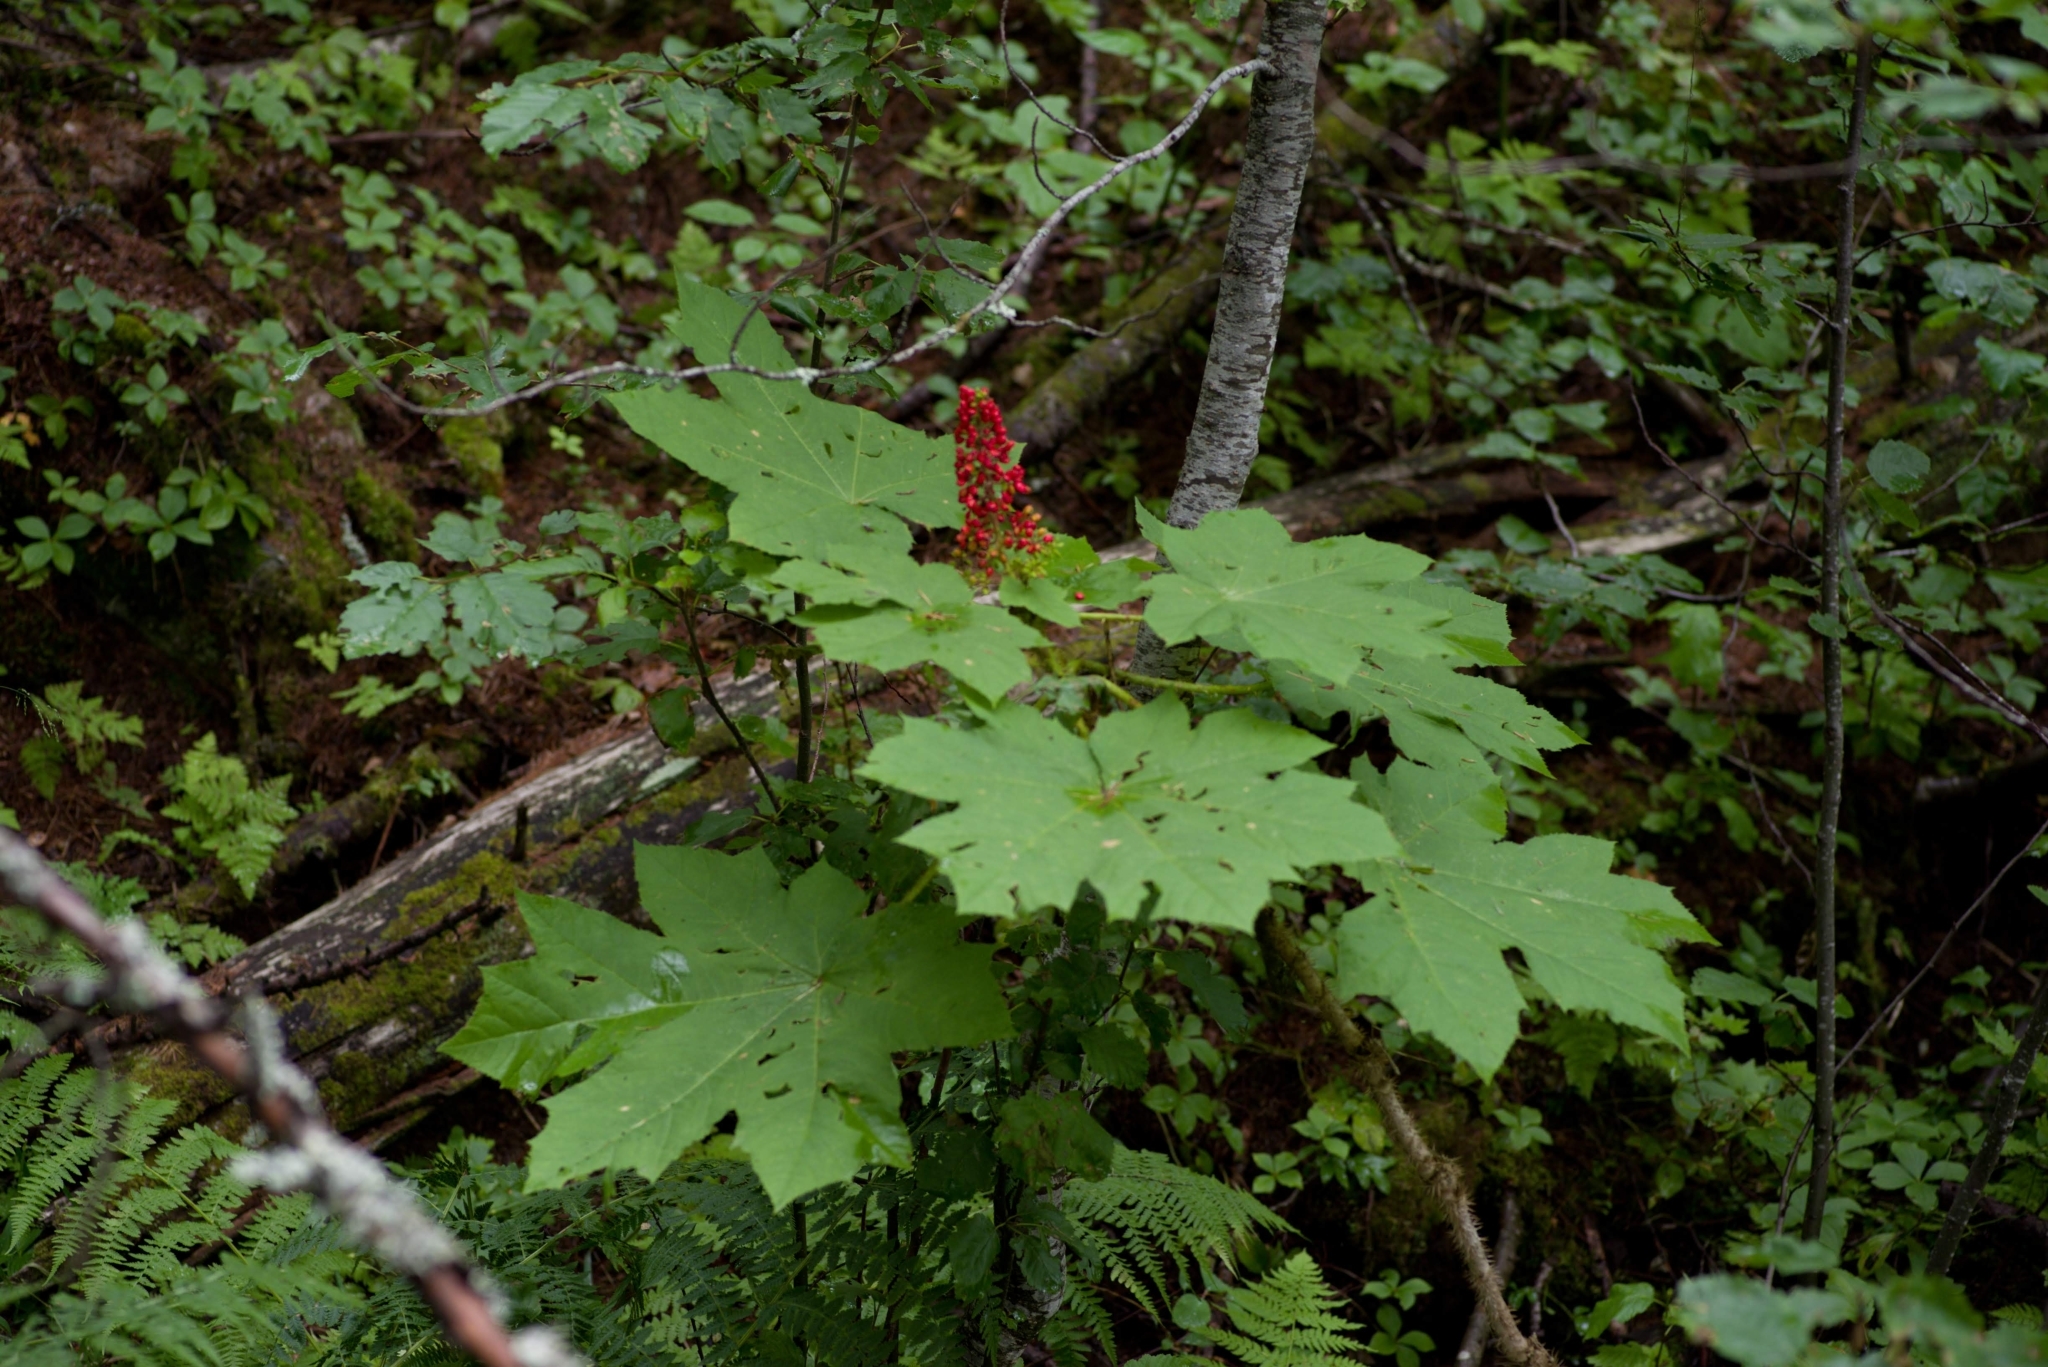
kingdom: Plantae
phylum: Tracheophyta
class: Magnoliopsida
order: Apiales
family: Araliaceae
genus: Oplopanax
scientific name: Oplopanax horridus
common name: Devil's walking-stick
